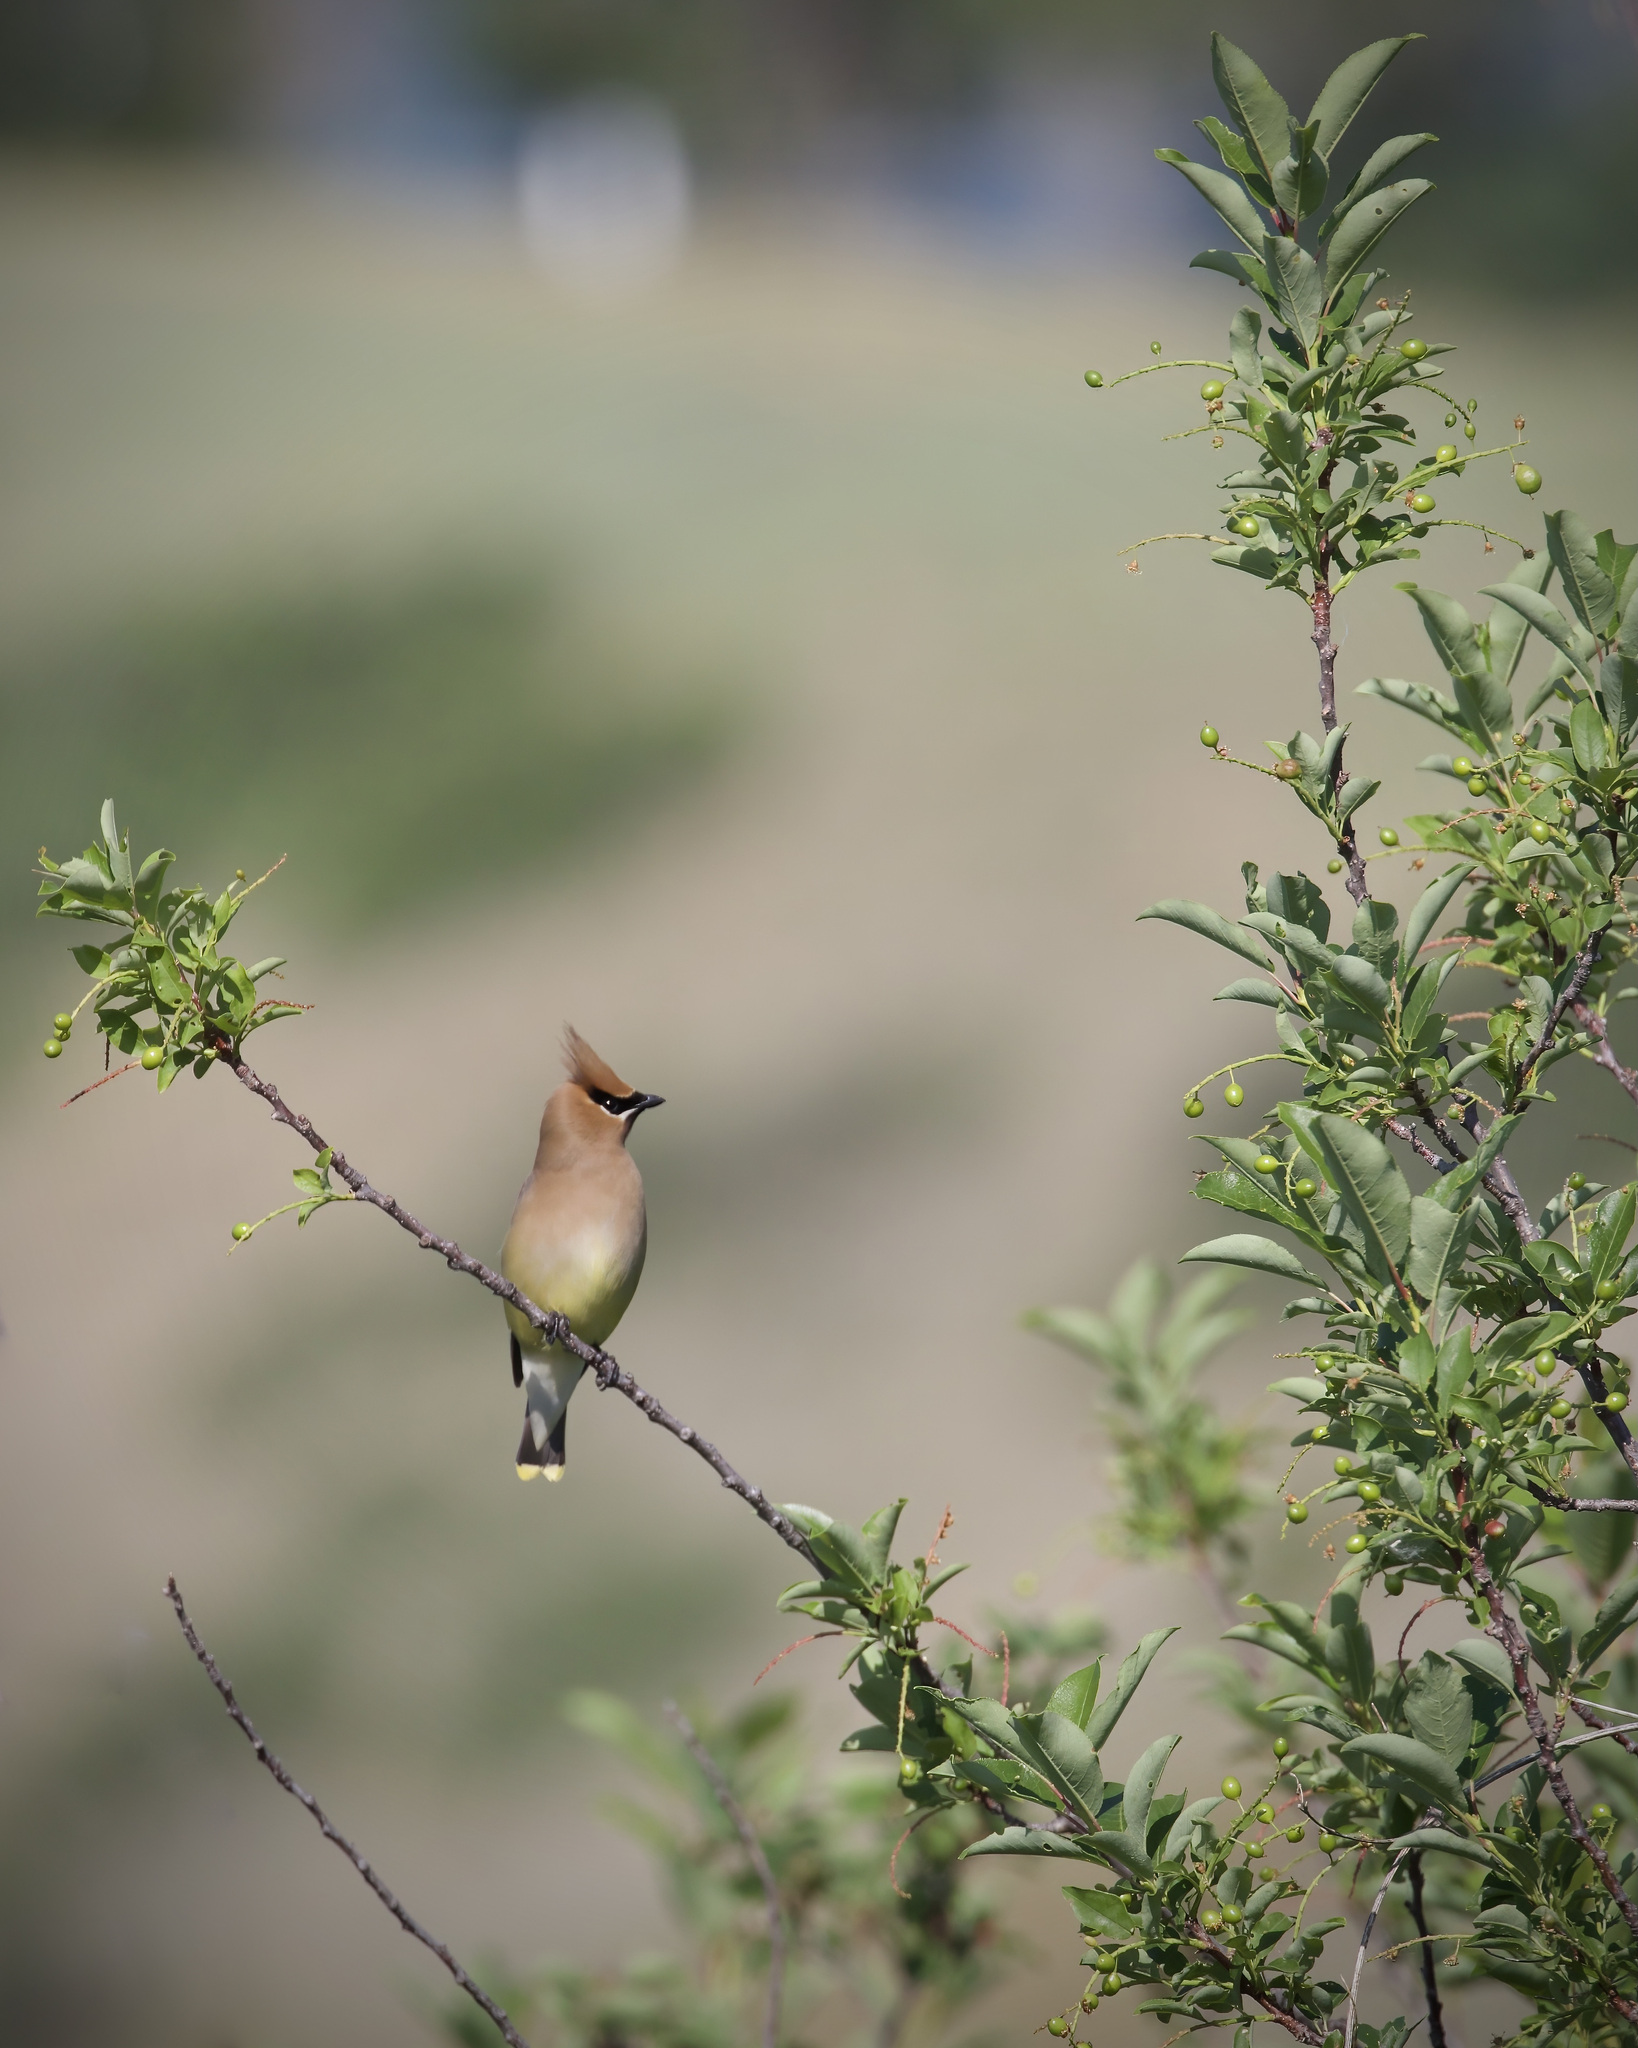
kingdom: Animalia
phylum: Chordata
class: Aves
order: Passeriformes
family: Bombycillidae
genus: Bombycilla
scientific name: Bombycilla cedrorum
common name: Cedar waxwing
